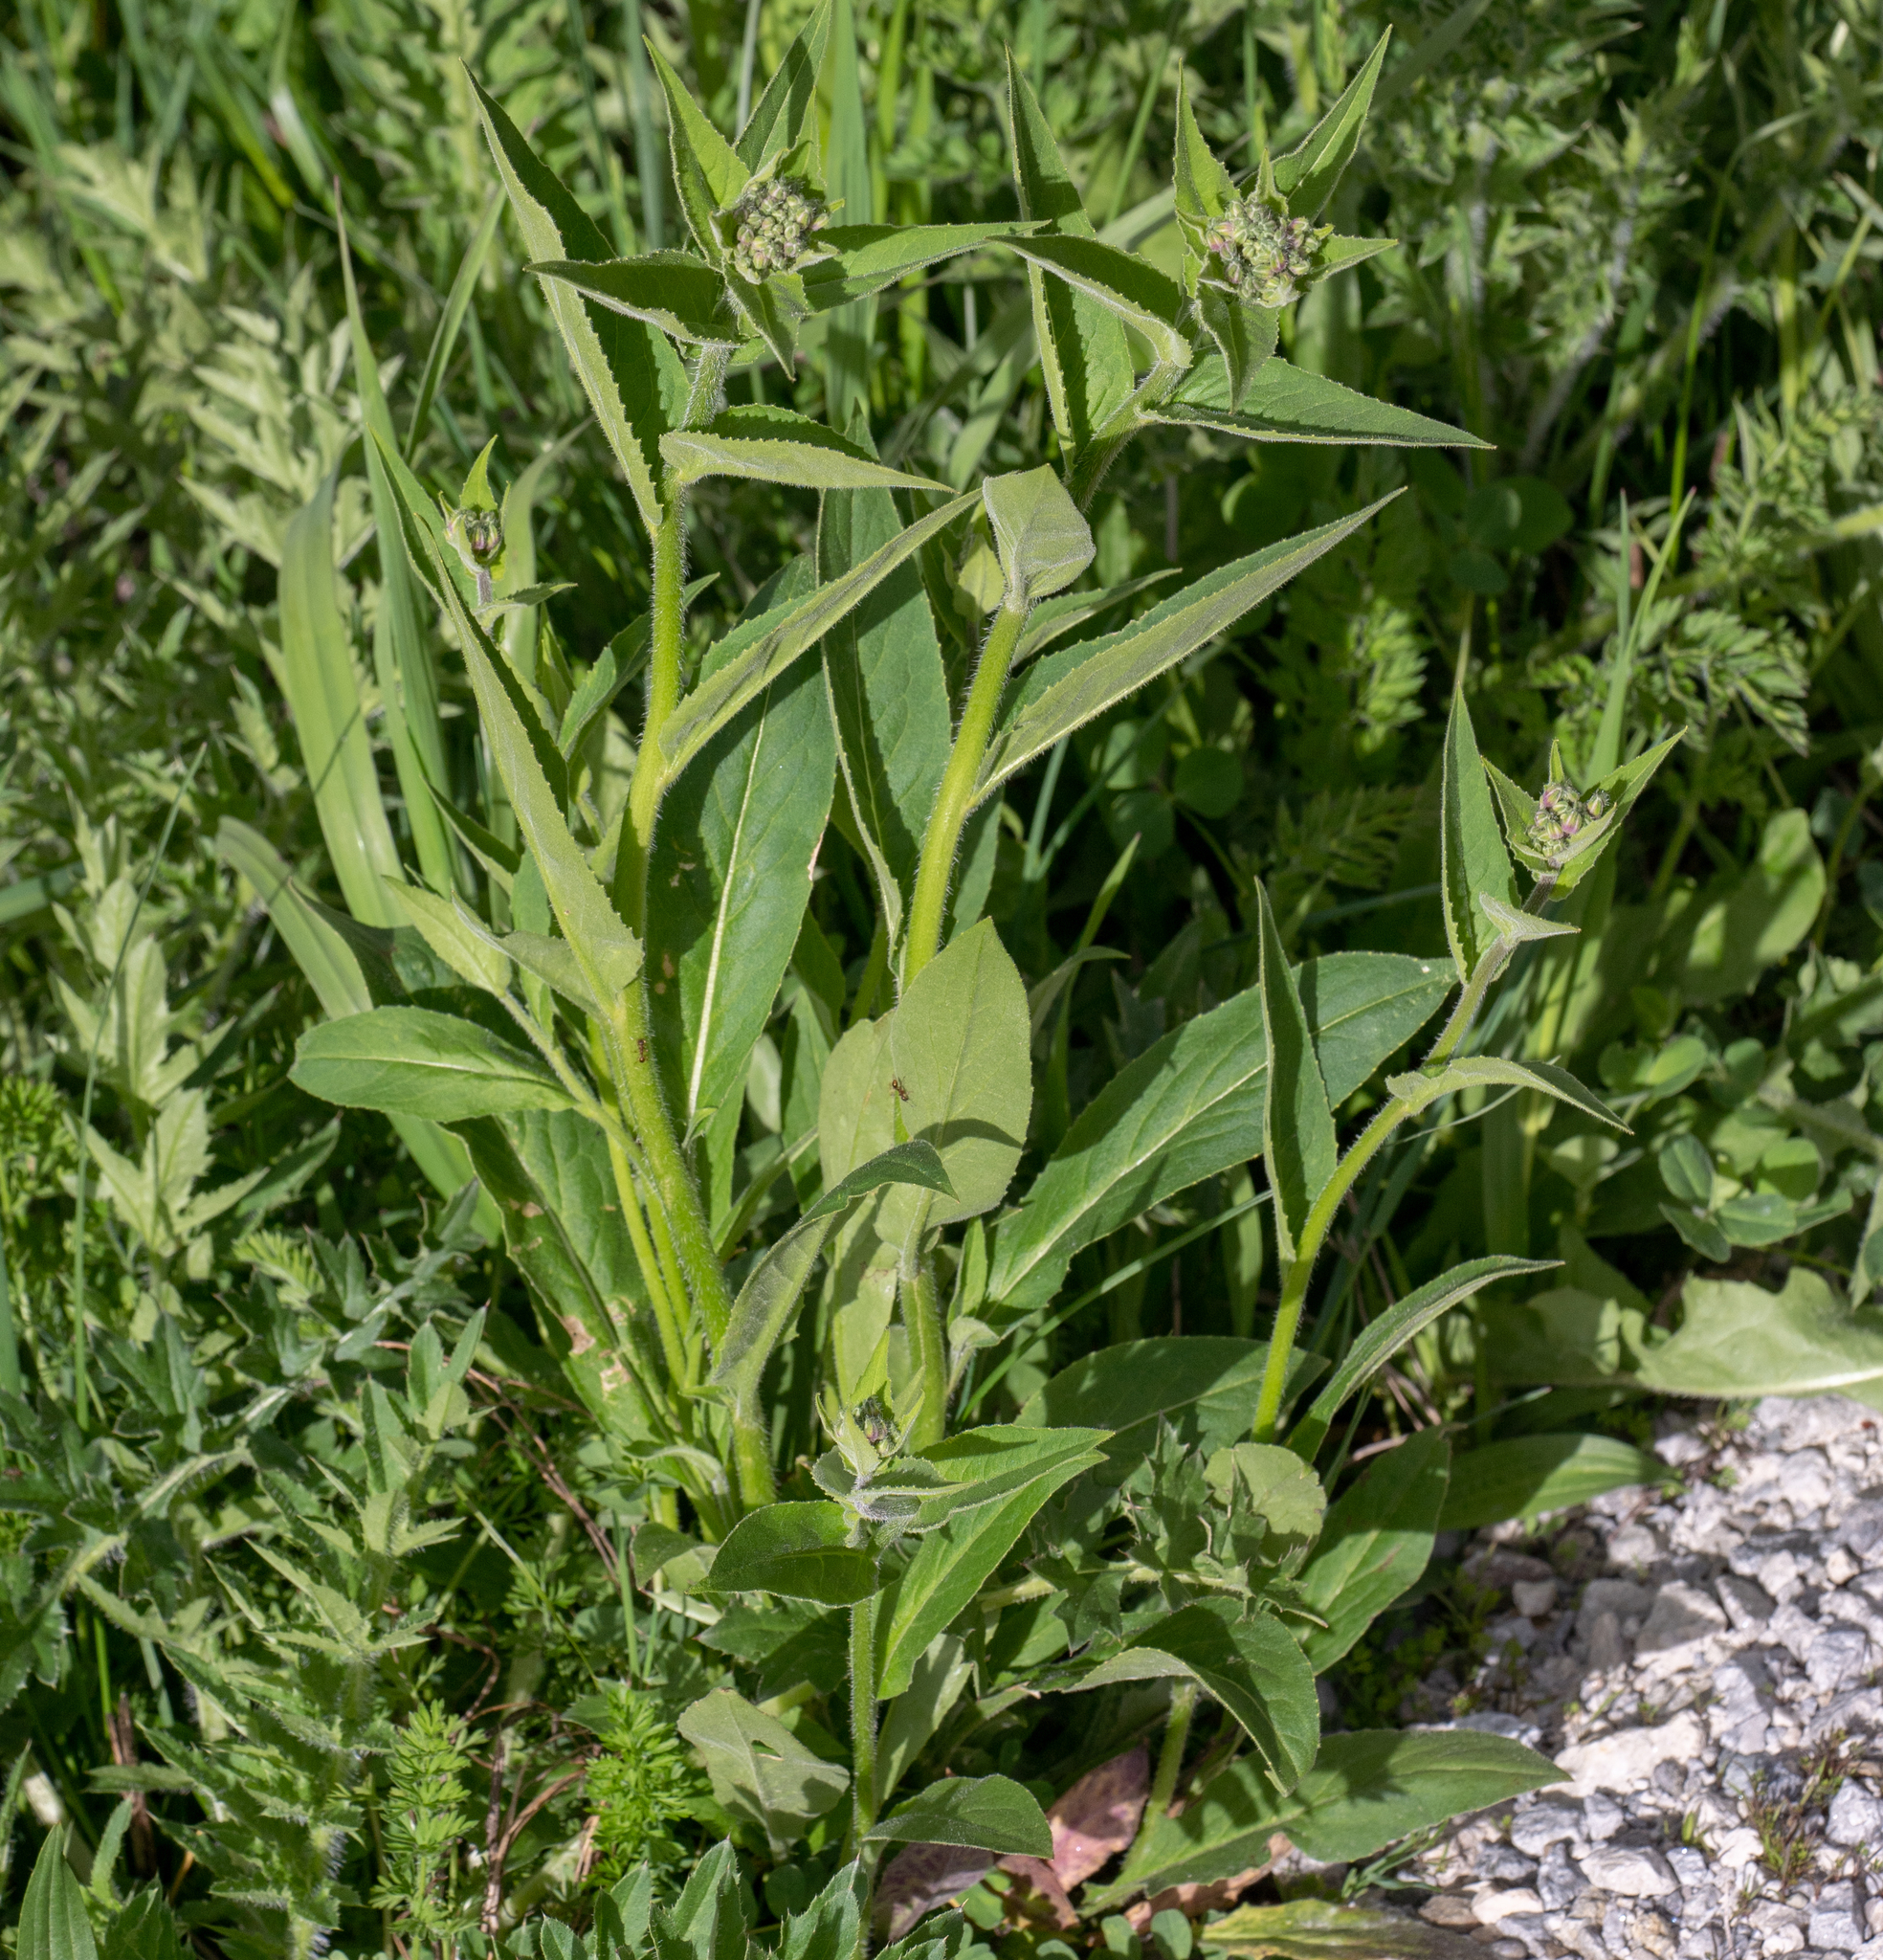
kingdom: Plantae
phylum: Tracheophyta
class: Magnoliopsida
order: Brassicales
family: Brassicaceae
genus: Hesperis
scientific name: Hesperis matronalis
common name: Dame's-violet
